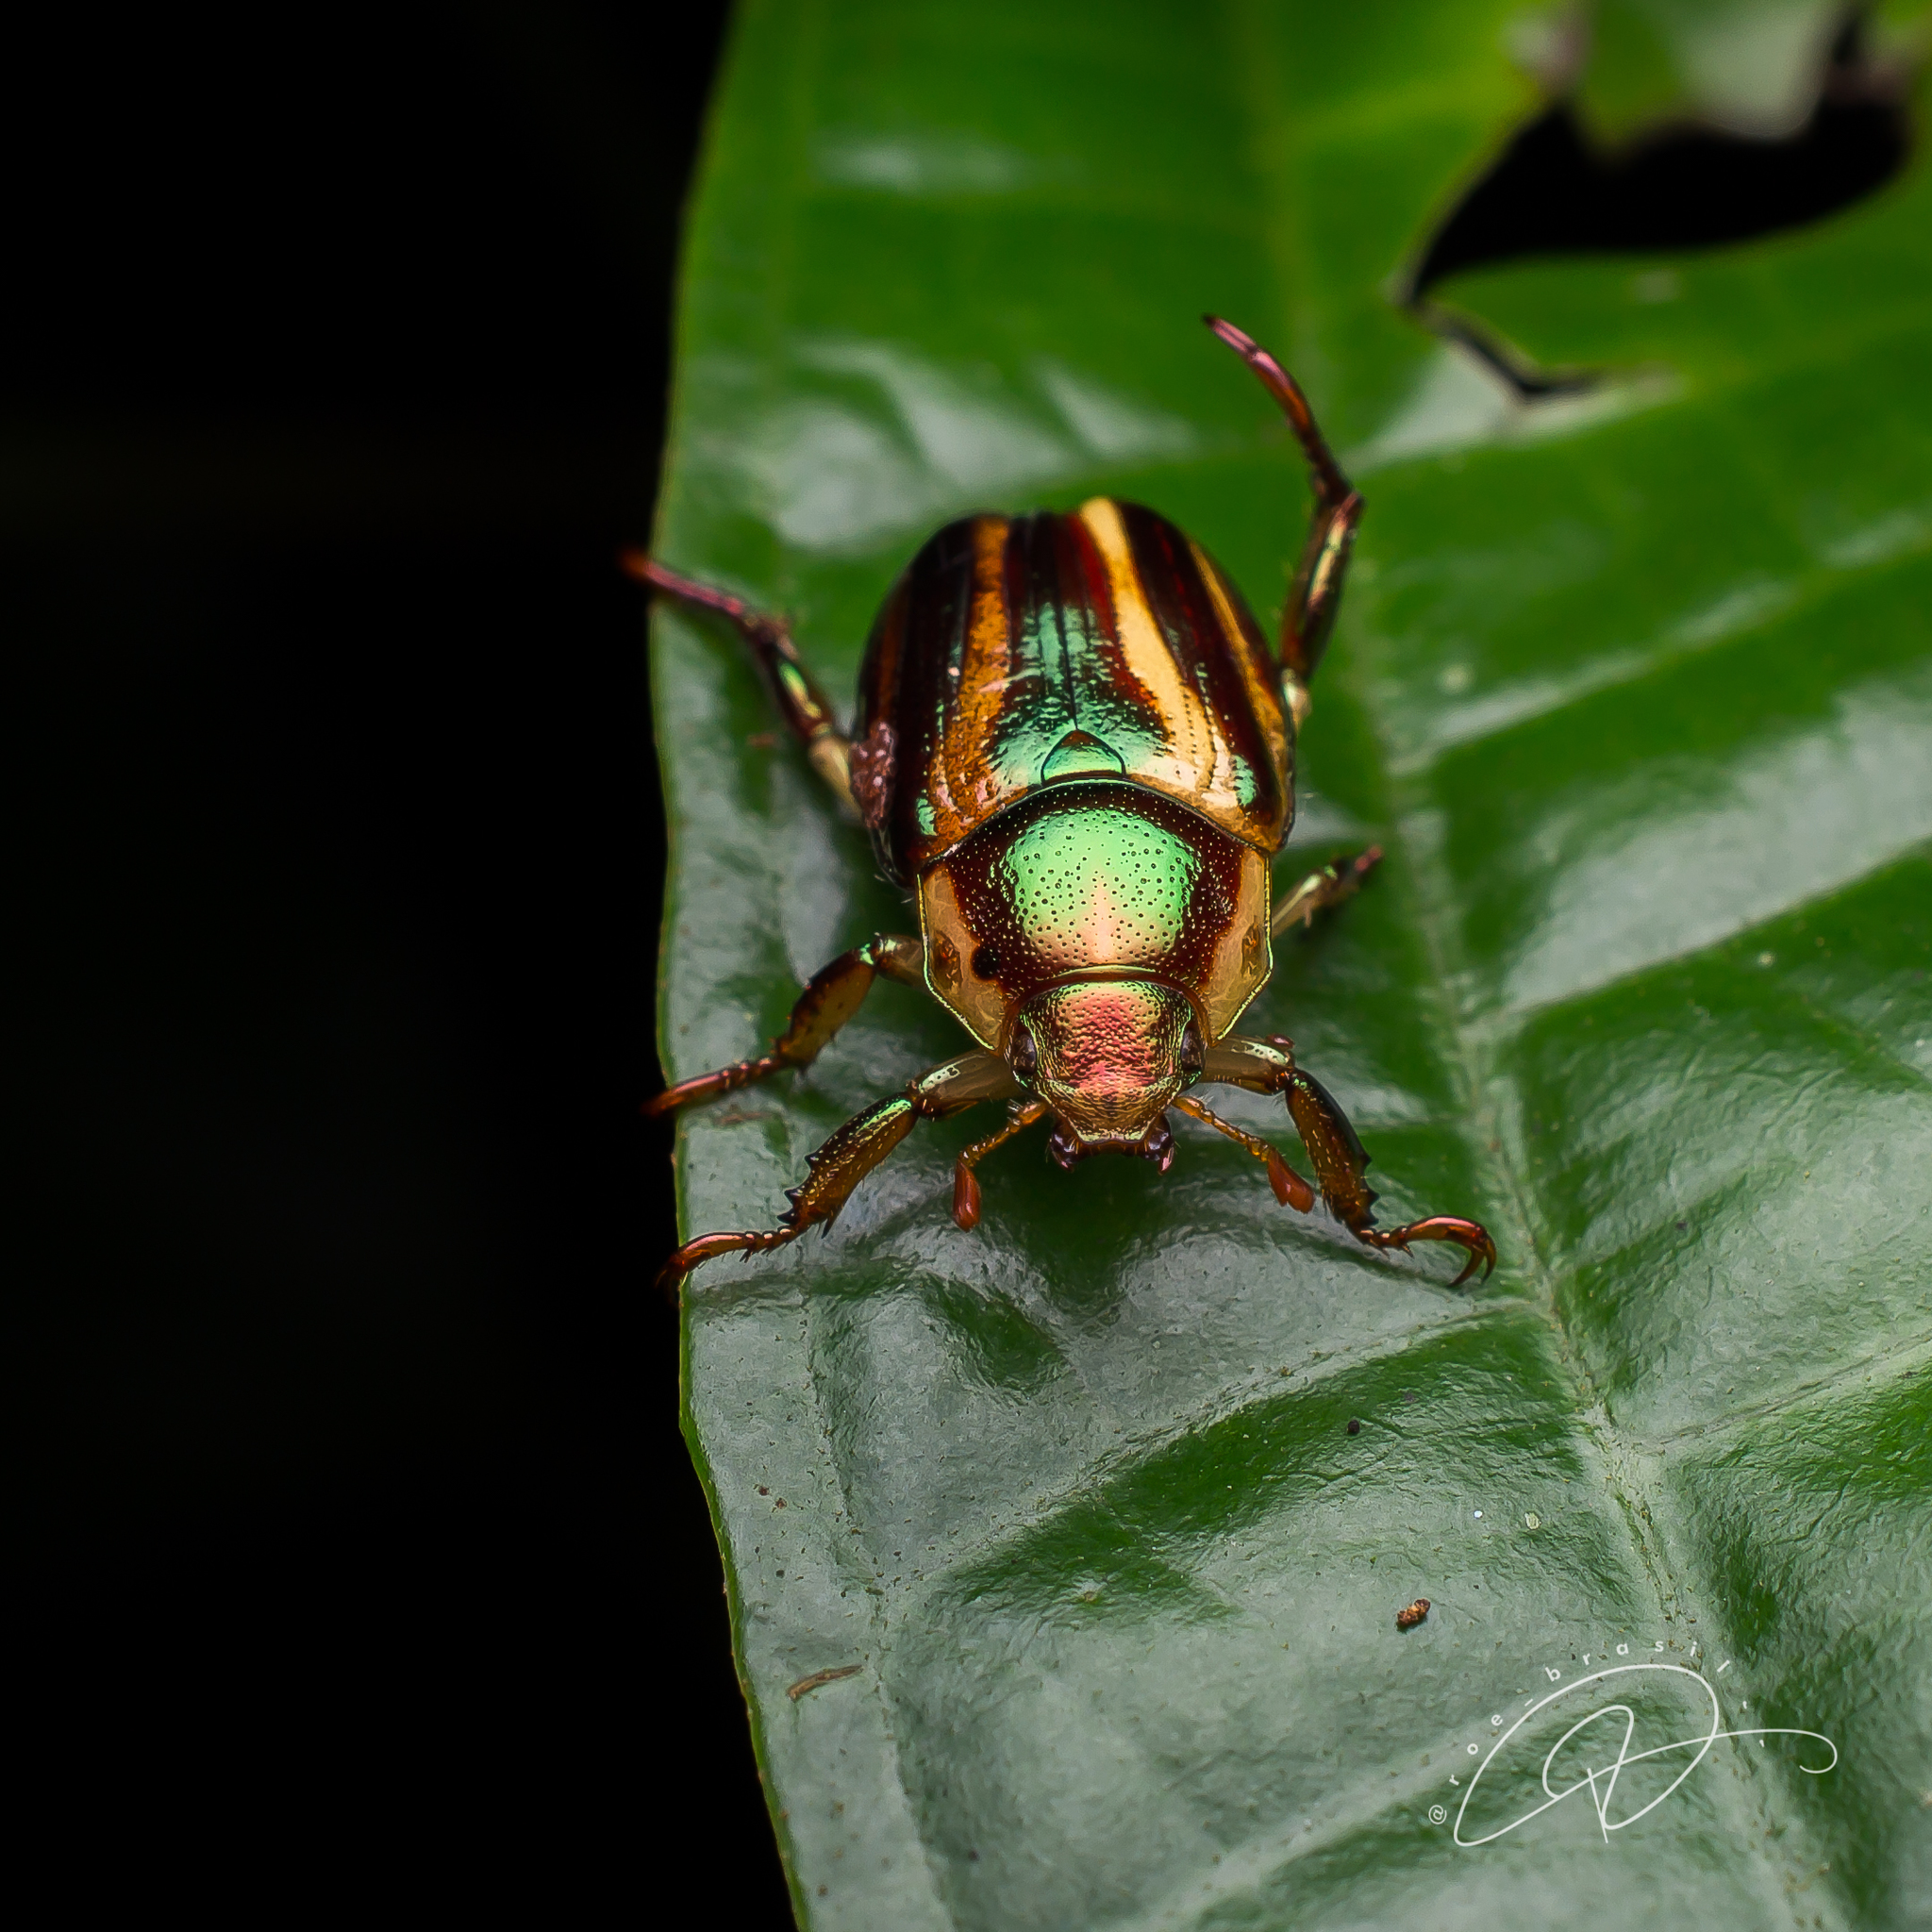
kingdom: Animalia
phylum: Arthropoda
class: Insecta
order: Coleoptera
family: Scarabaeidae
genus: Pelidnota
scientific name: Pelidnota liturella
